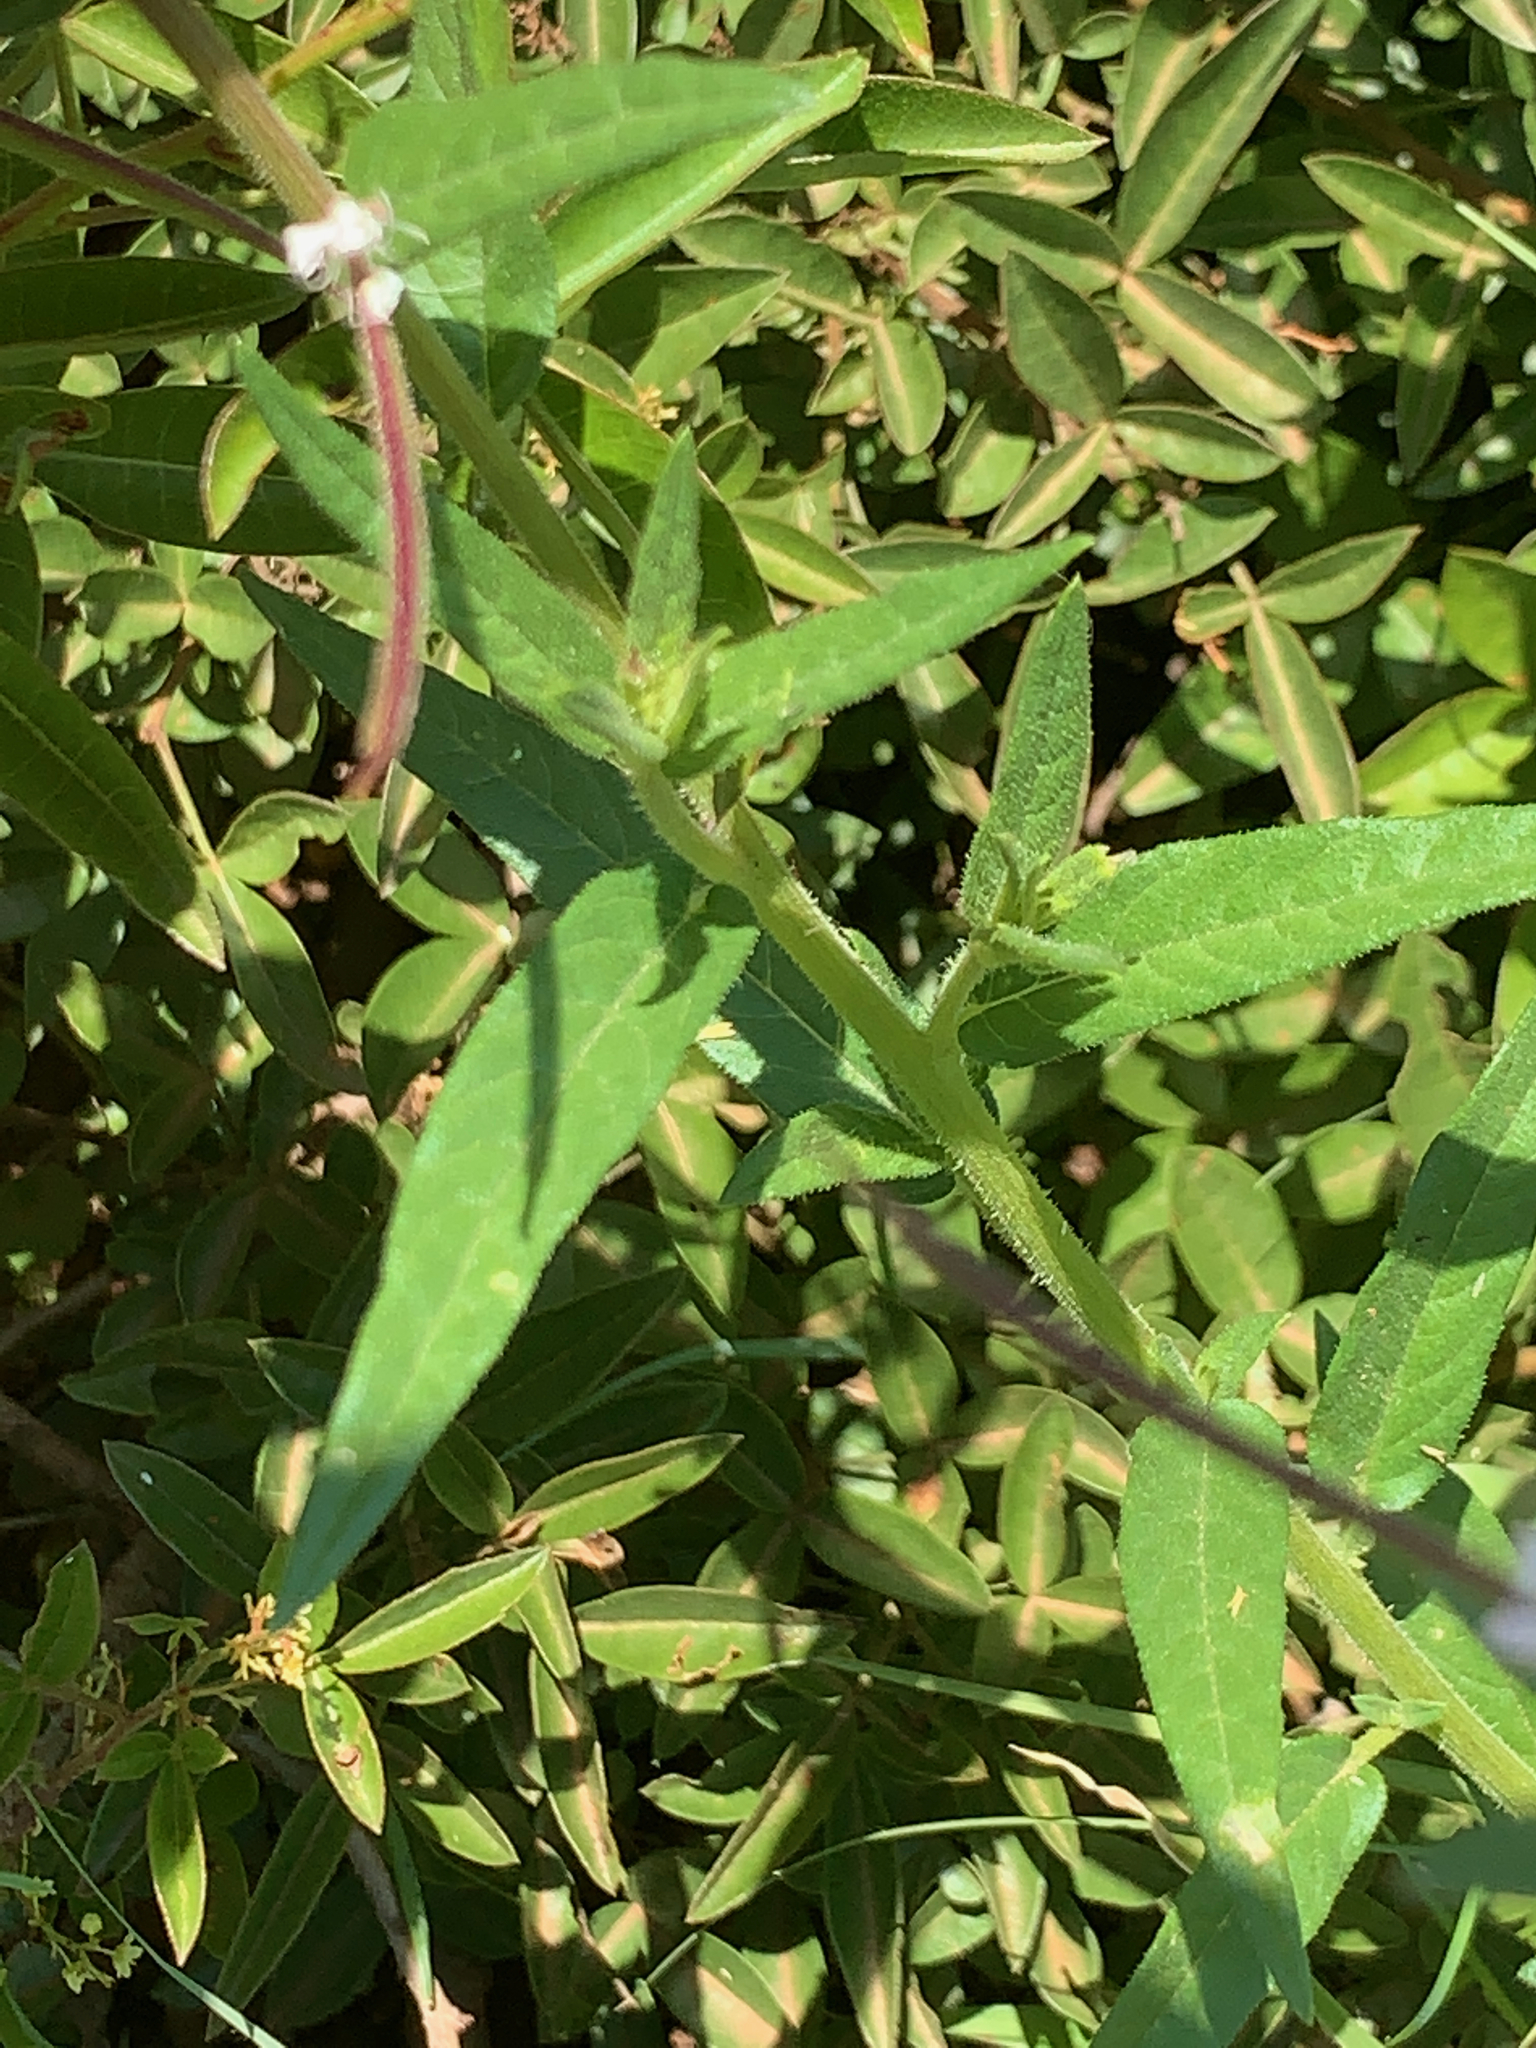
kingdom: Plantae
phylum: Tracheophyta
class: Magnoliopsida
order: Brassicales
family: Cleomaceae
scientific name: Cleomaceae
